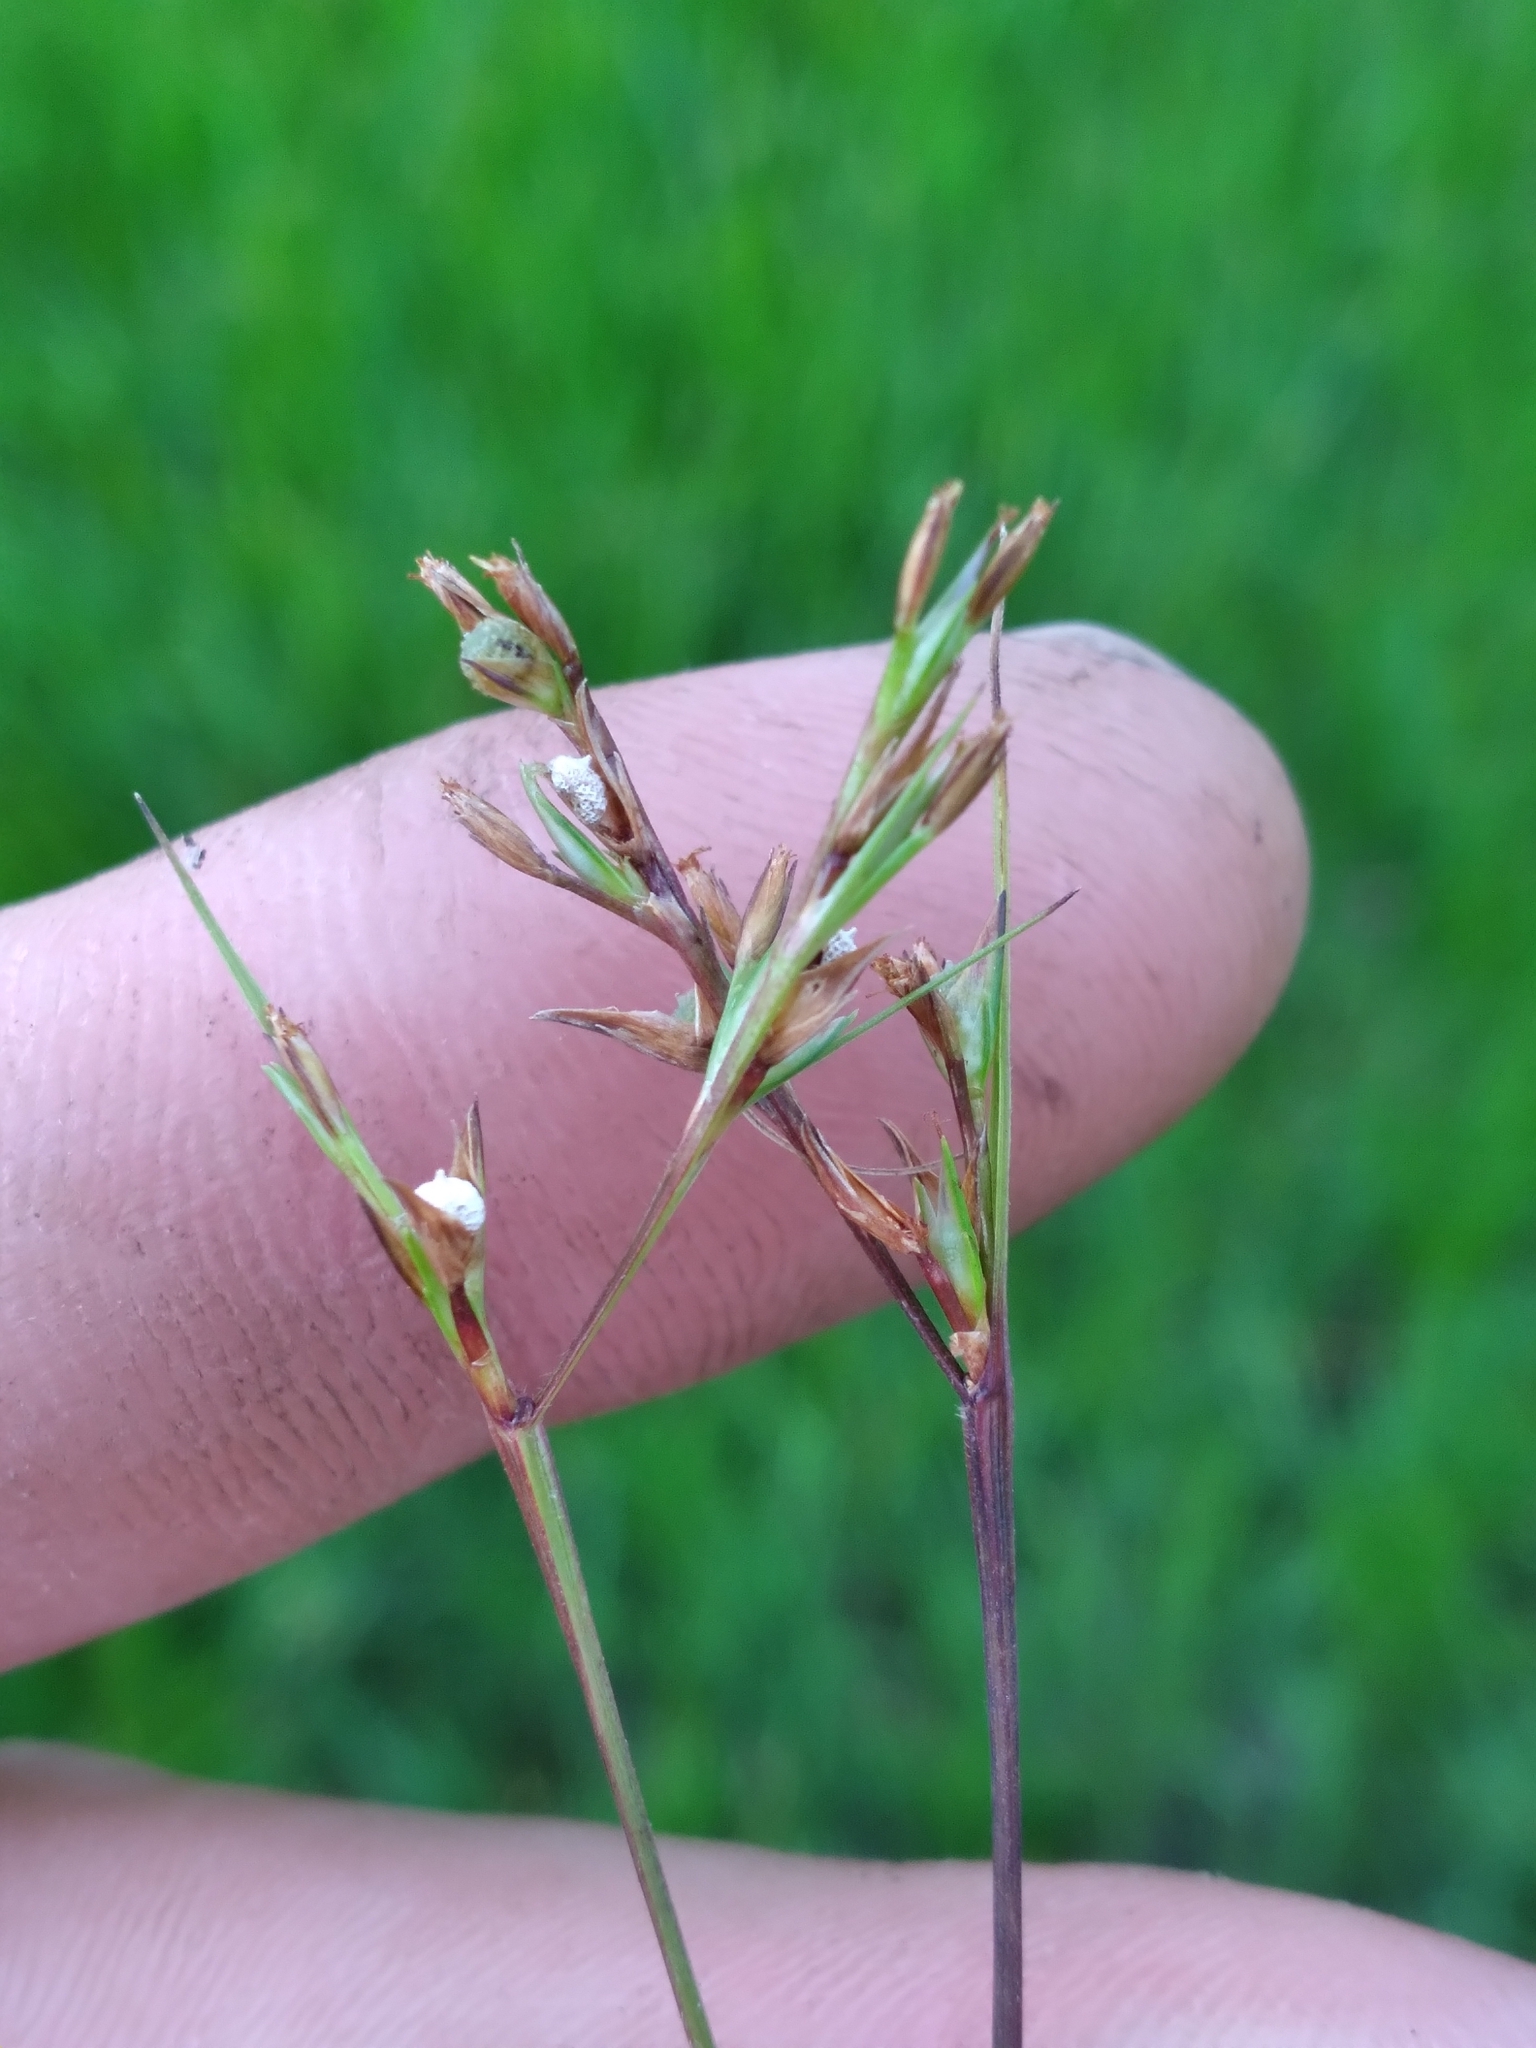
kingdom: Plantae
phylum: Tracheophyta
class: Liliopsida
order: Poales
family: Cyperaceae
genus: Scleria
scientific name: Scleria muehlenbergii
